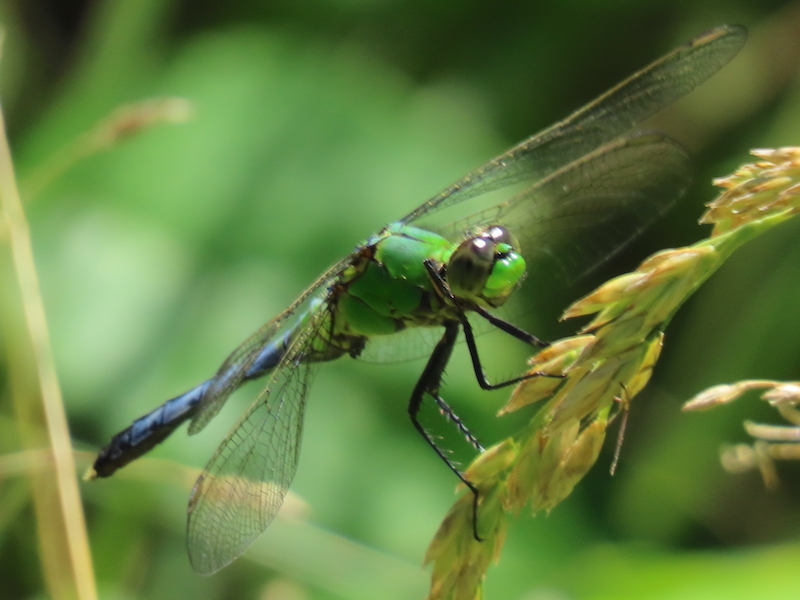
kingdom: Animalia
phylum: Arthropoda
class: Insecta
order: Odonata
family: Libellulidae
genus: Erythemis
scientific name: Erythemis simplicicollis
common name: Eastern pondhawk
